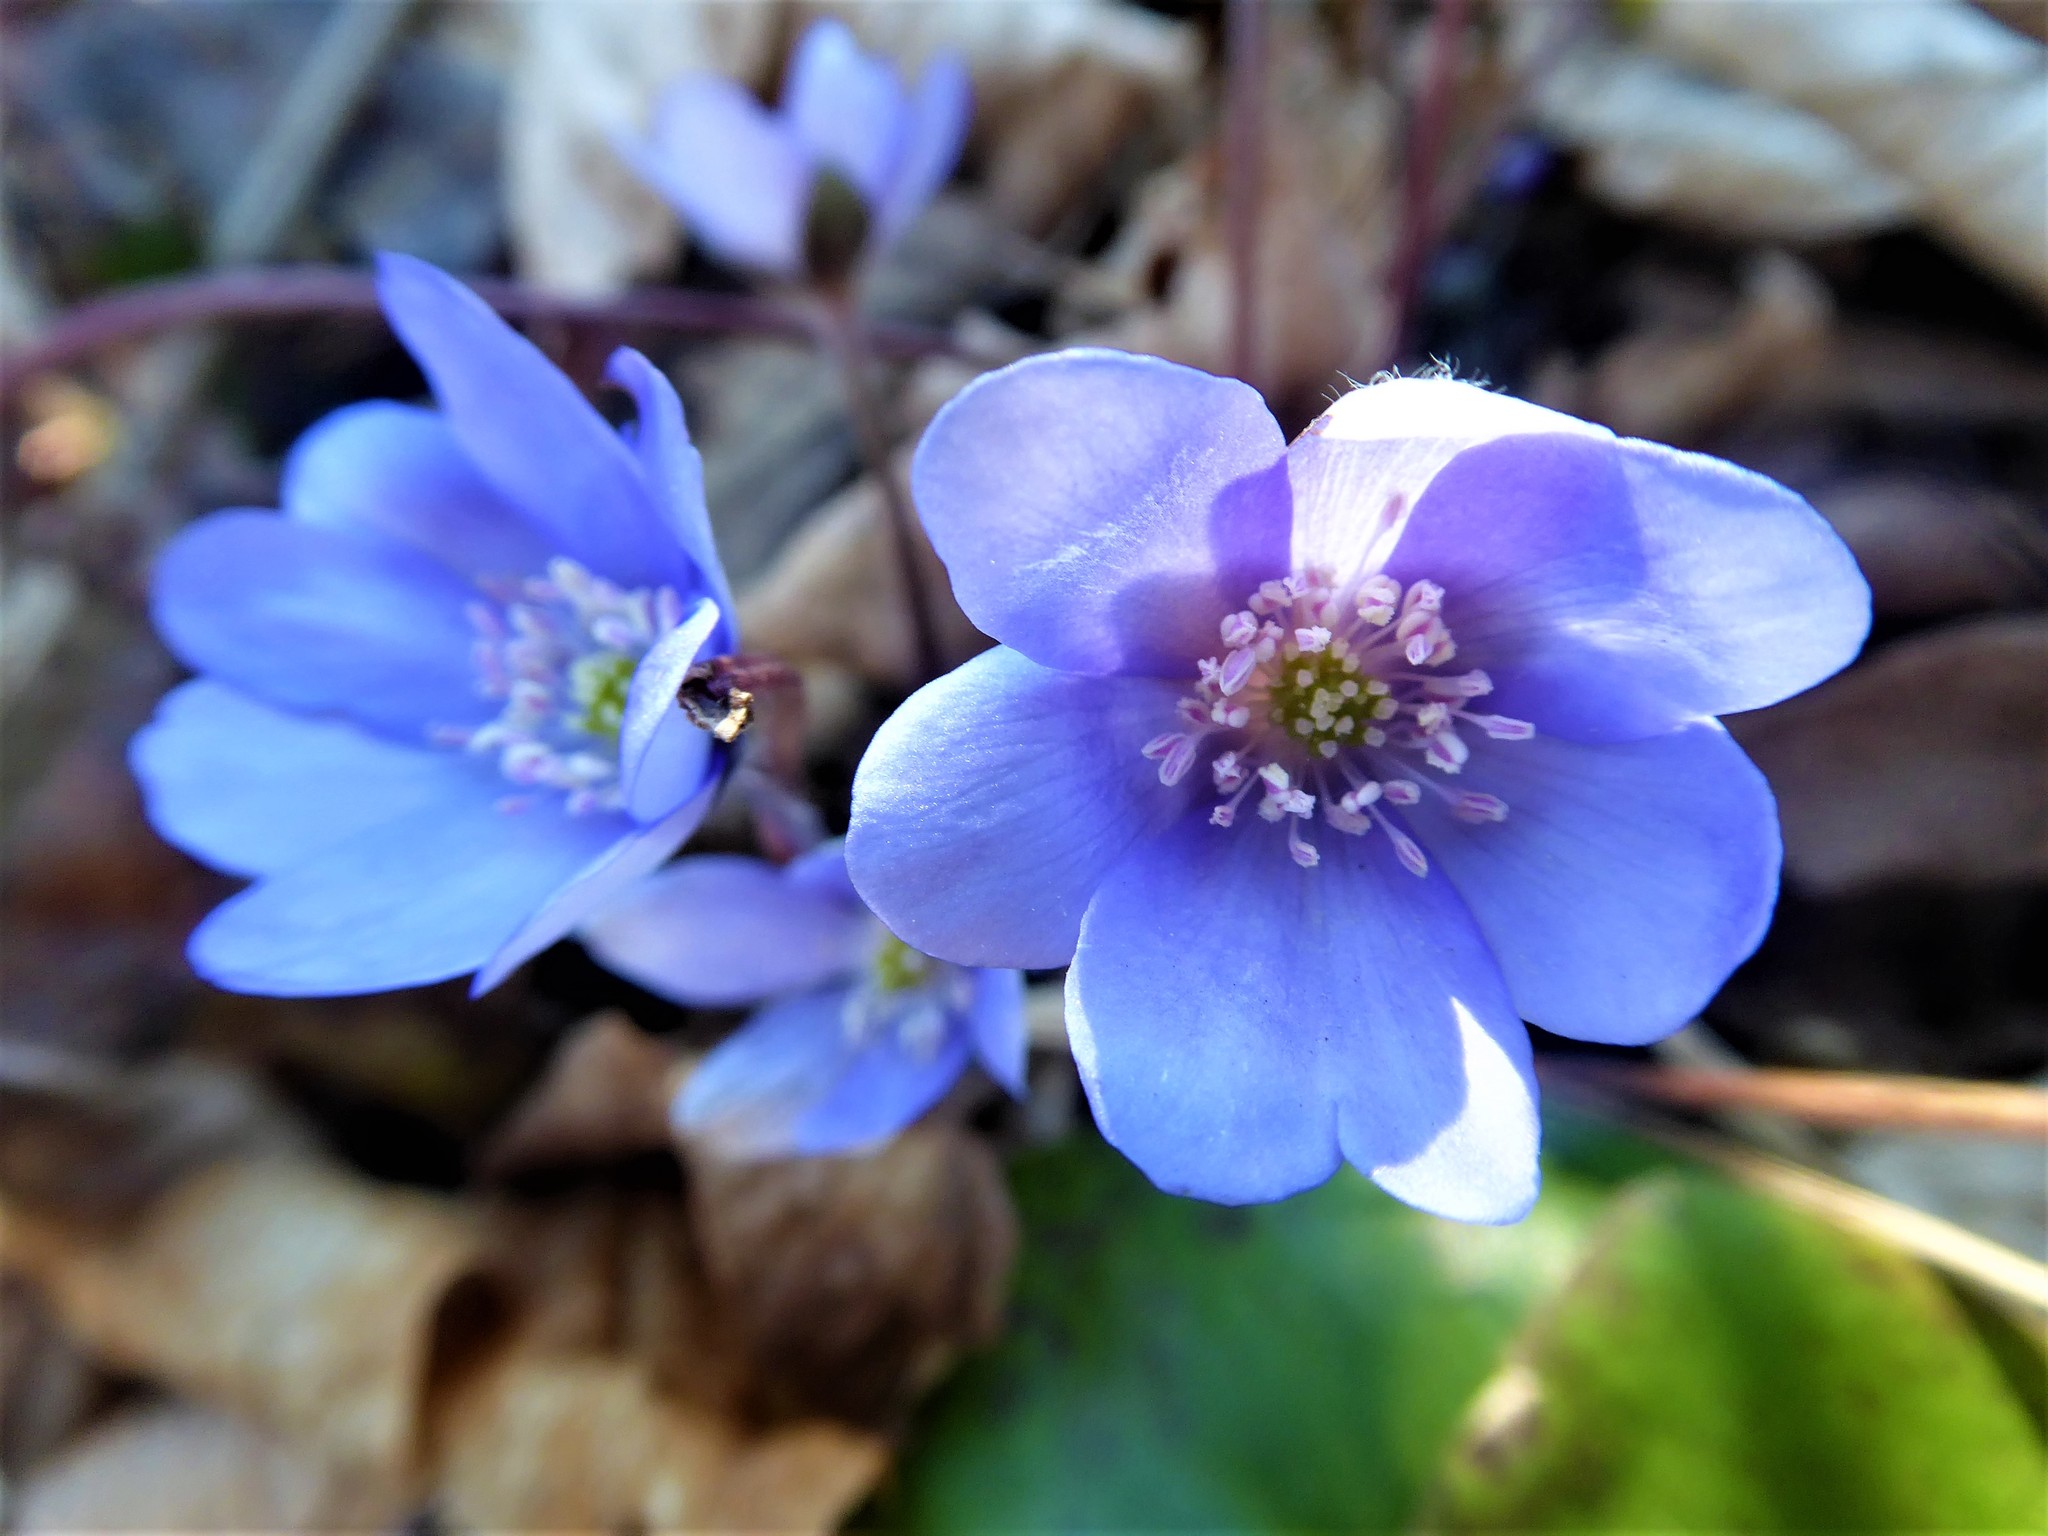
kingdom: Plantae
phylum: Tracheophyta
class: Magnoliopsida
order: Ranunculales
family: Ranunculaceae
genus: Hepatica
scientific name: Hepatica nobilis
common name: Liverleaf
